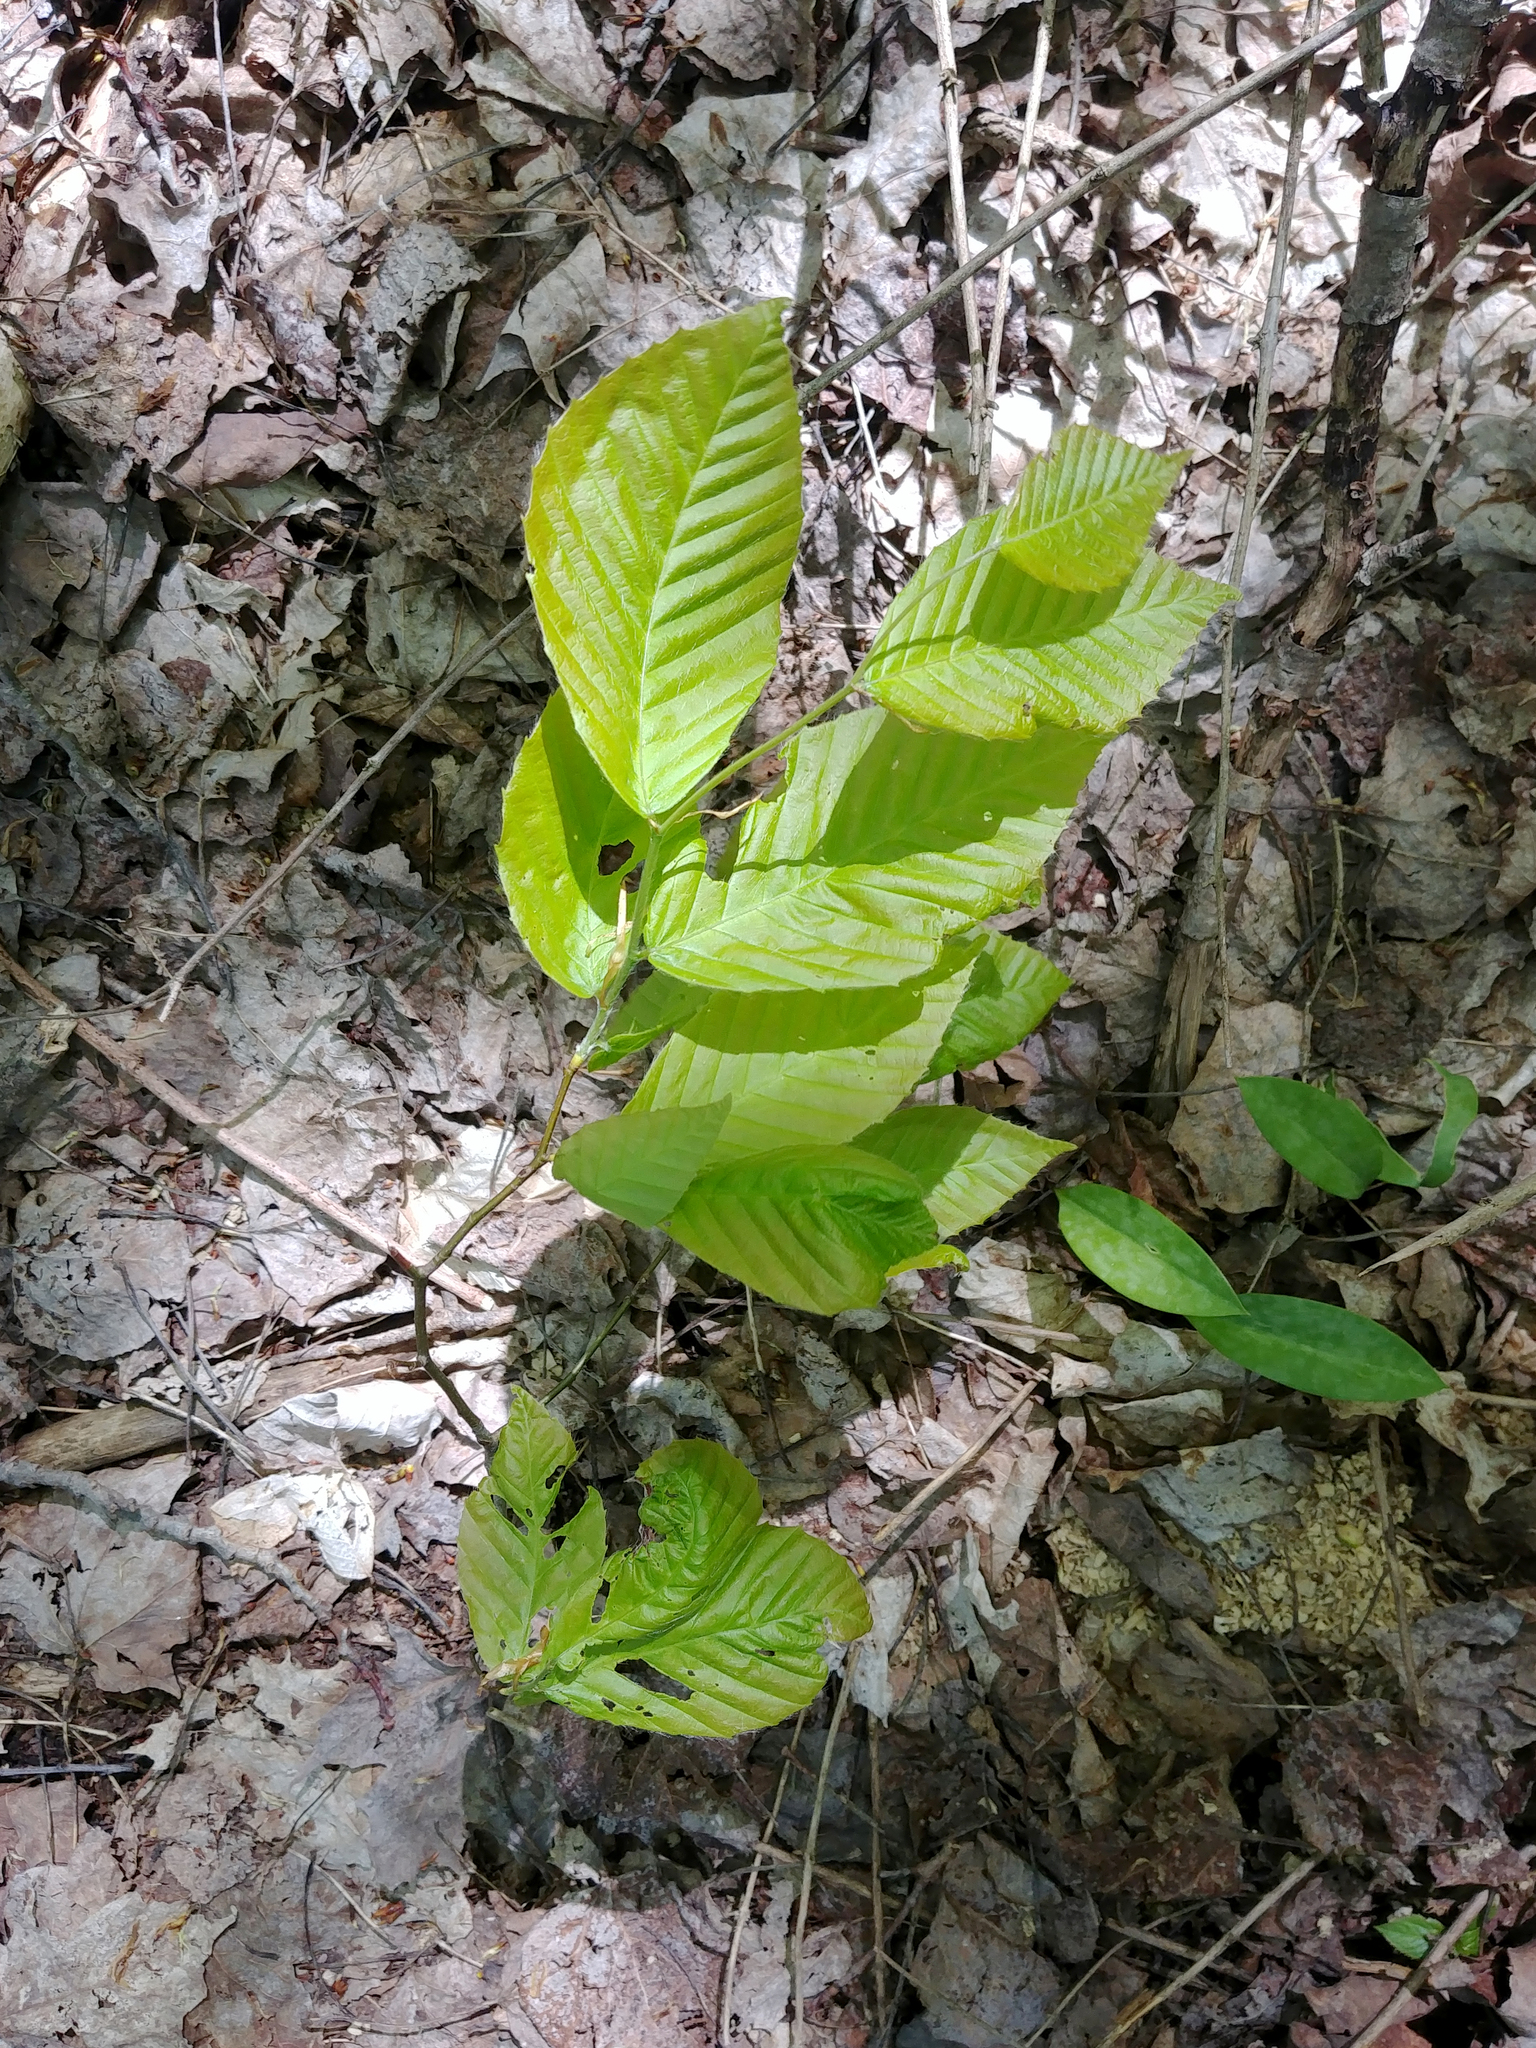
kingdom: Plantae
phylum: Tracheophyta
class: Magnoliopsida
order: Fagales
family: Fagaceae
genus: Fagus
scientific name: Fagus grandifolia
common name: American beech
